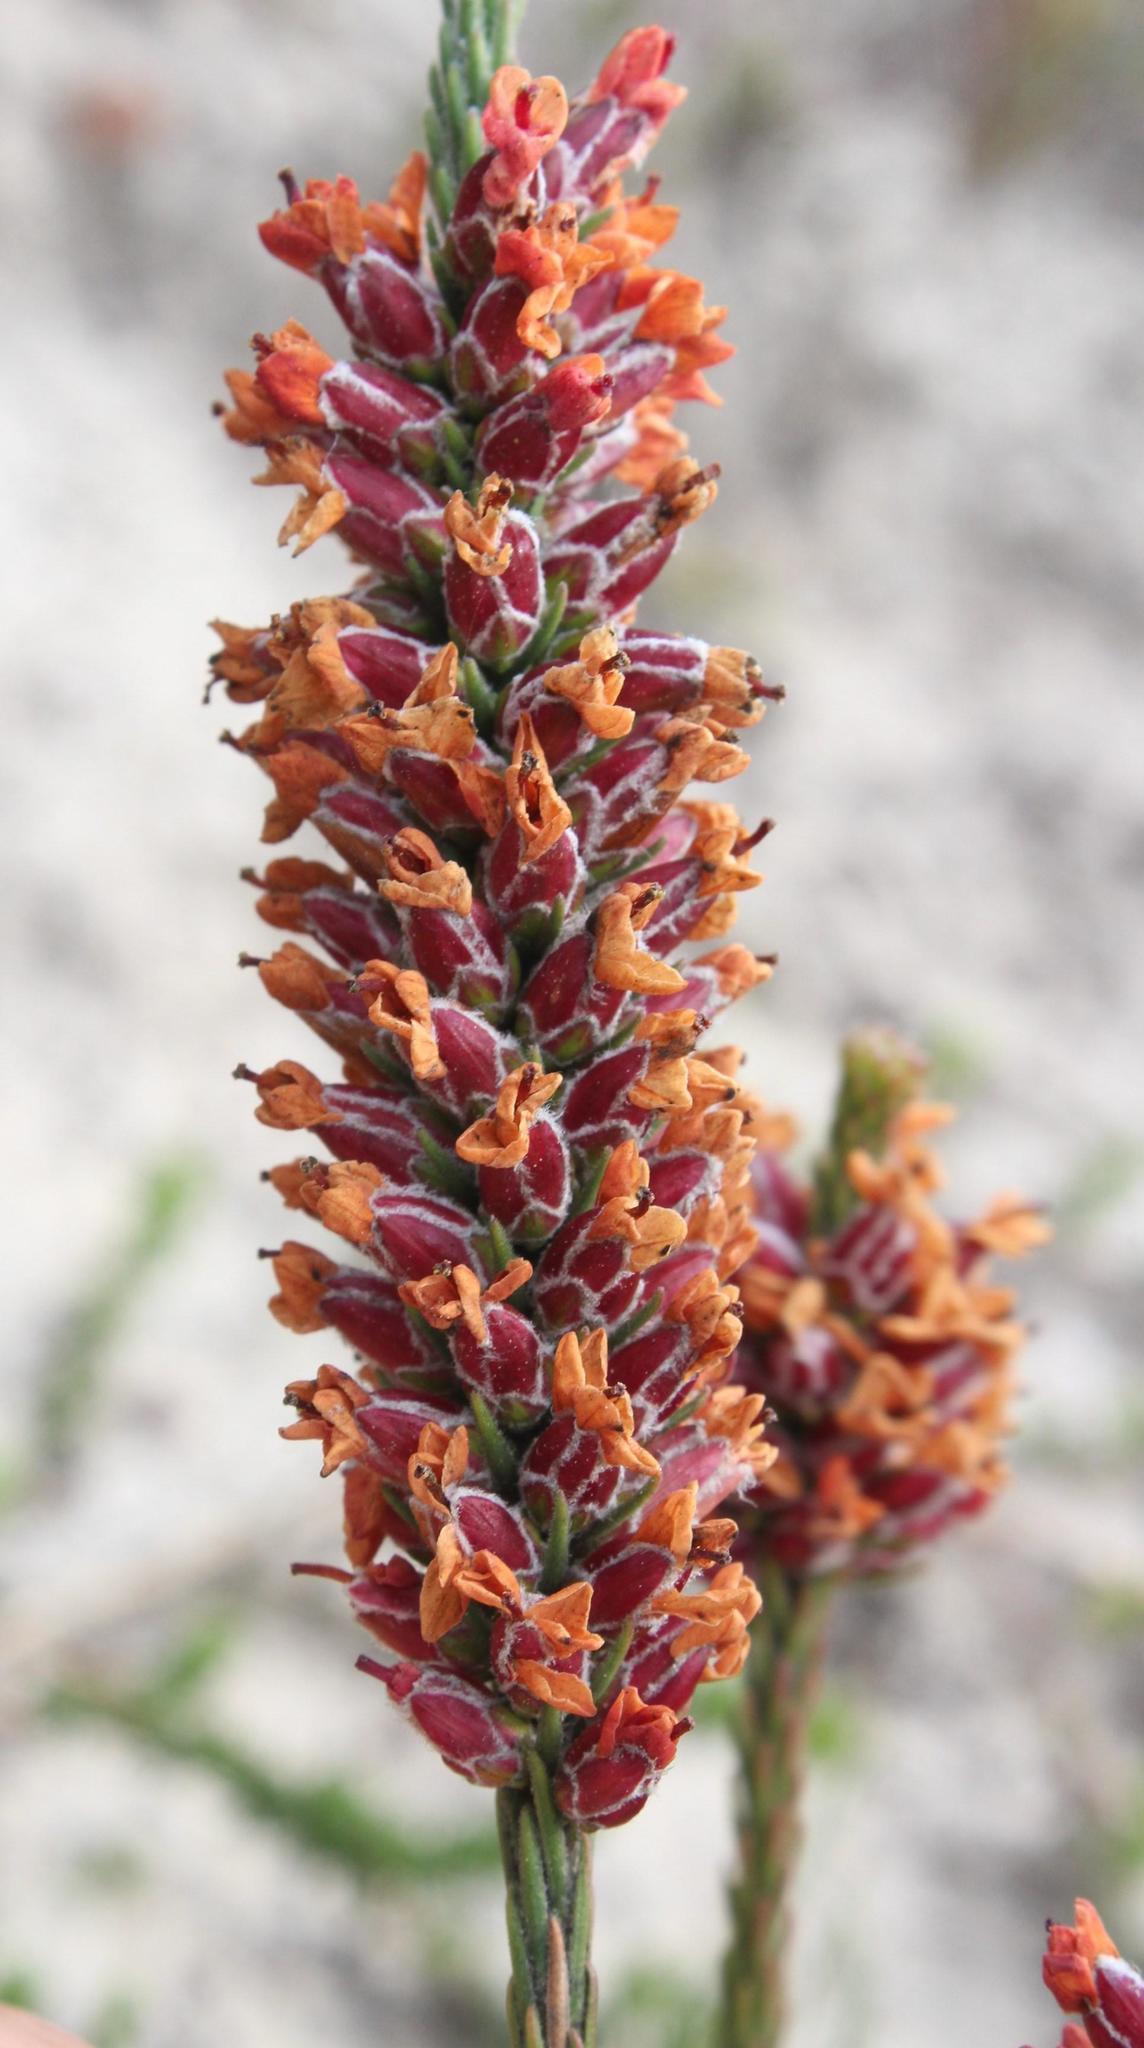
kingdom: Plantae
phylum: Tracheophyta
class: Magnoliopsida
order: Bruniales
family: Bruniaceae
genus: Audouinia
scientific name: Audouinia capitata
